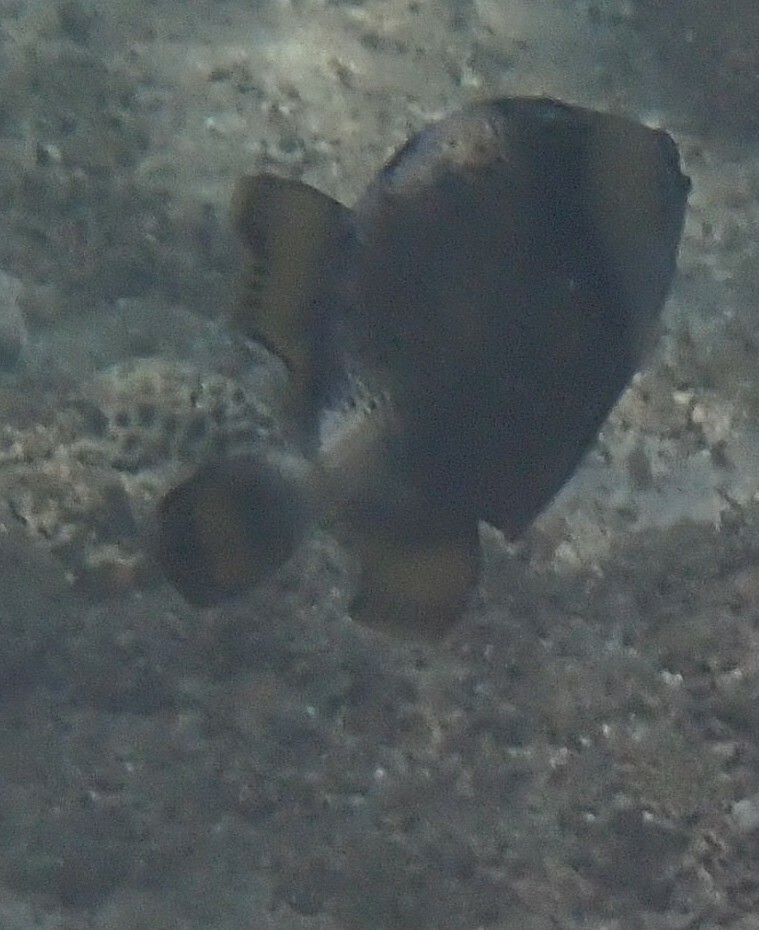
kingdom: Animalia
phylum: Chordata
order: Tetraodontiformes
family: Balistidae
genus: Balistoides
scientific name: Balistoides viridescens
